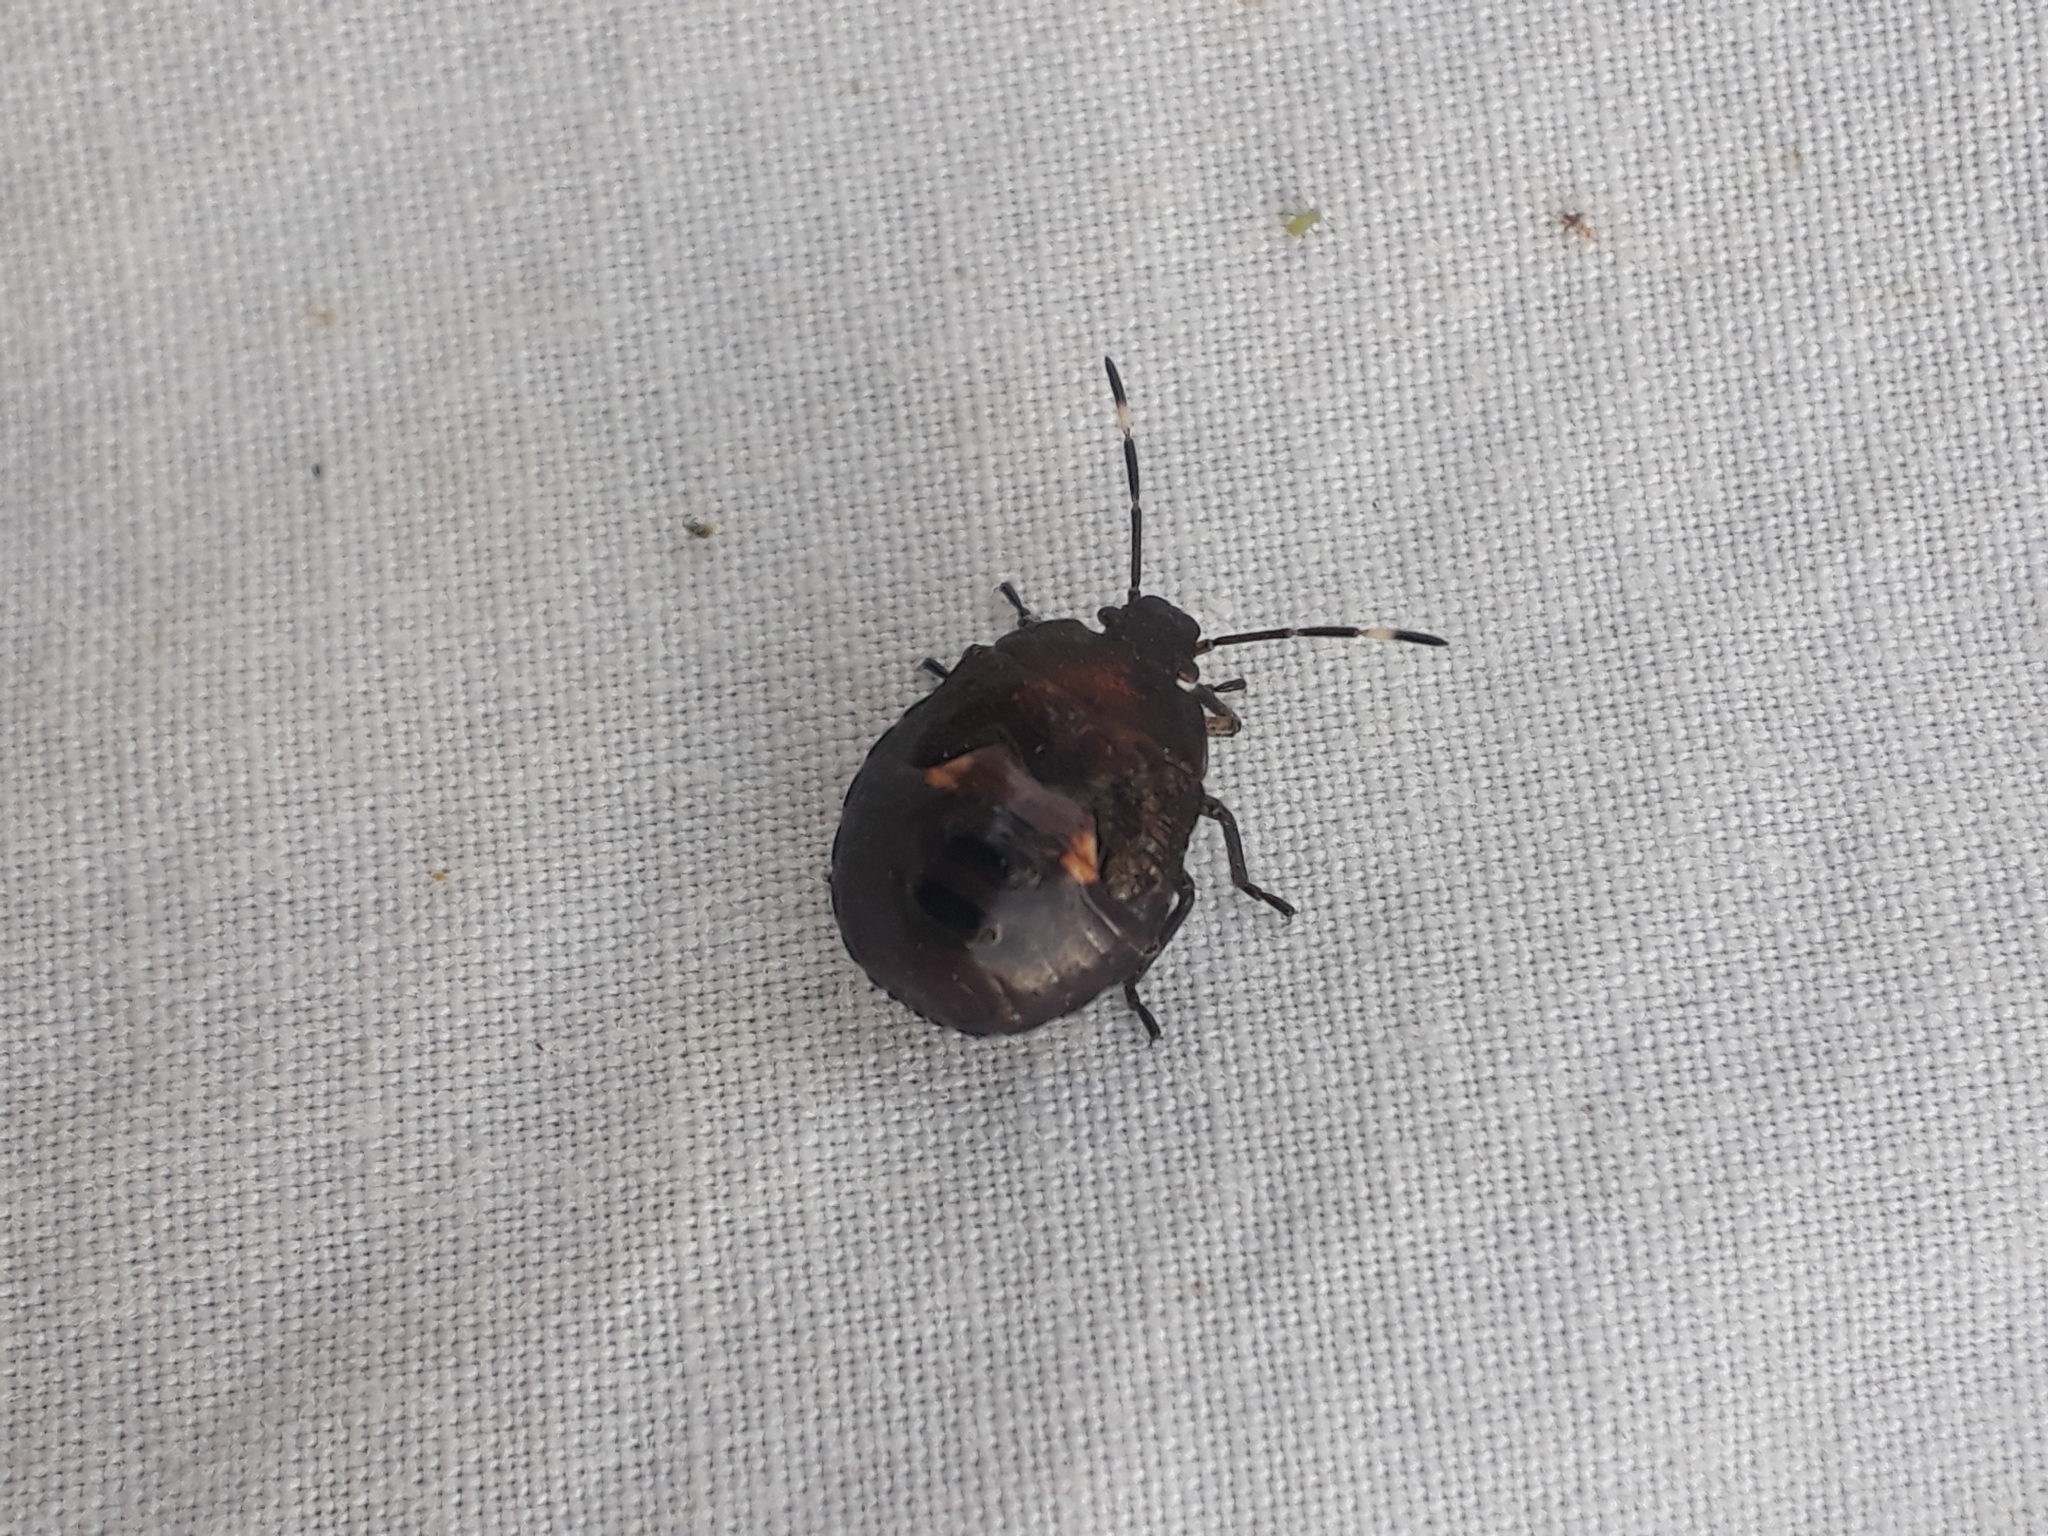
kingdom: Animalia
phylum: Arthropoda
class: Insecta
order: Hemiptera
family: Pentatomidae
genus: Monteithiella
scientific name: Monteithiella
